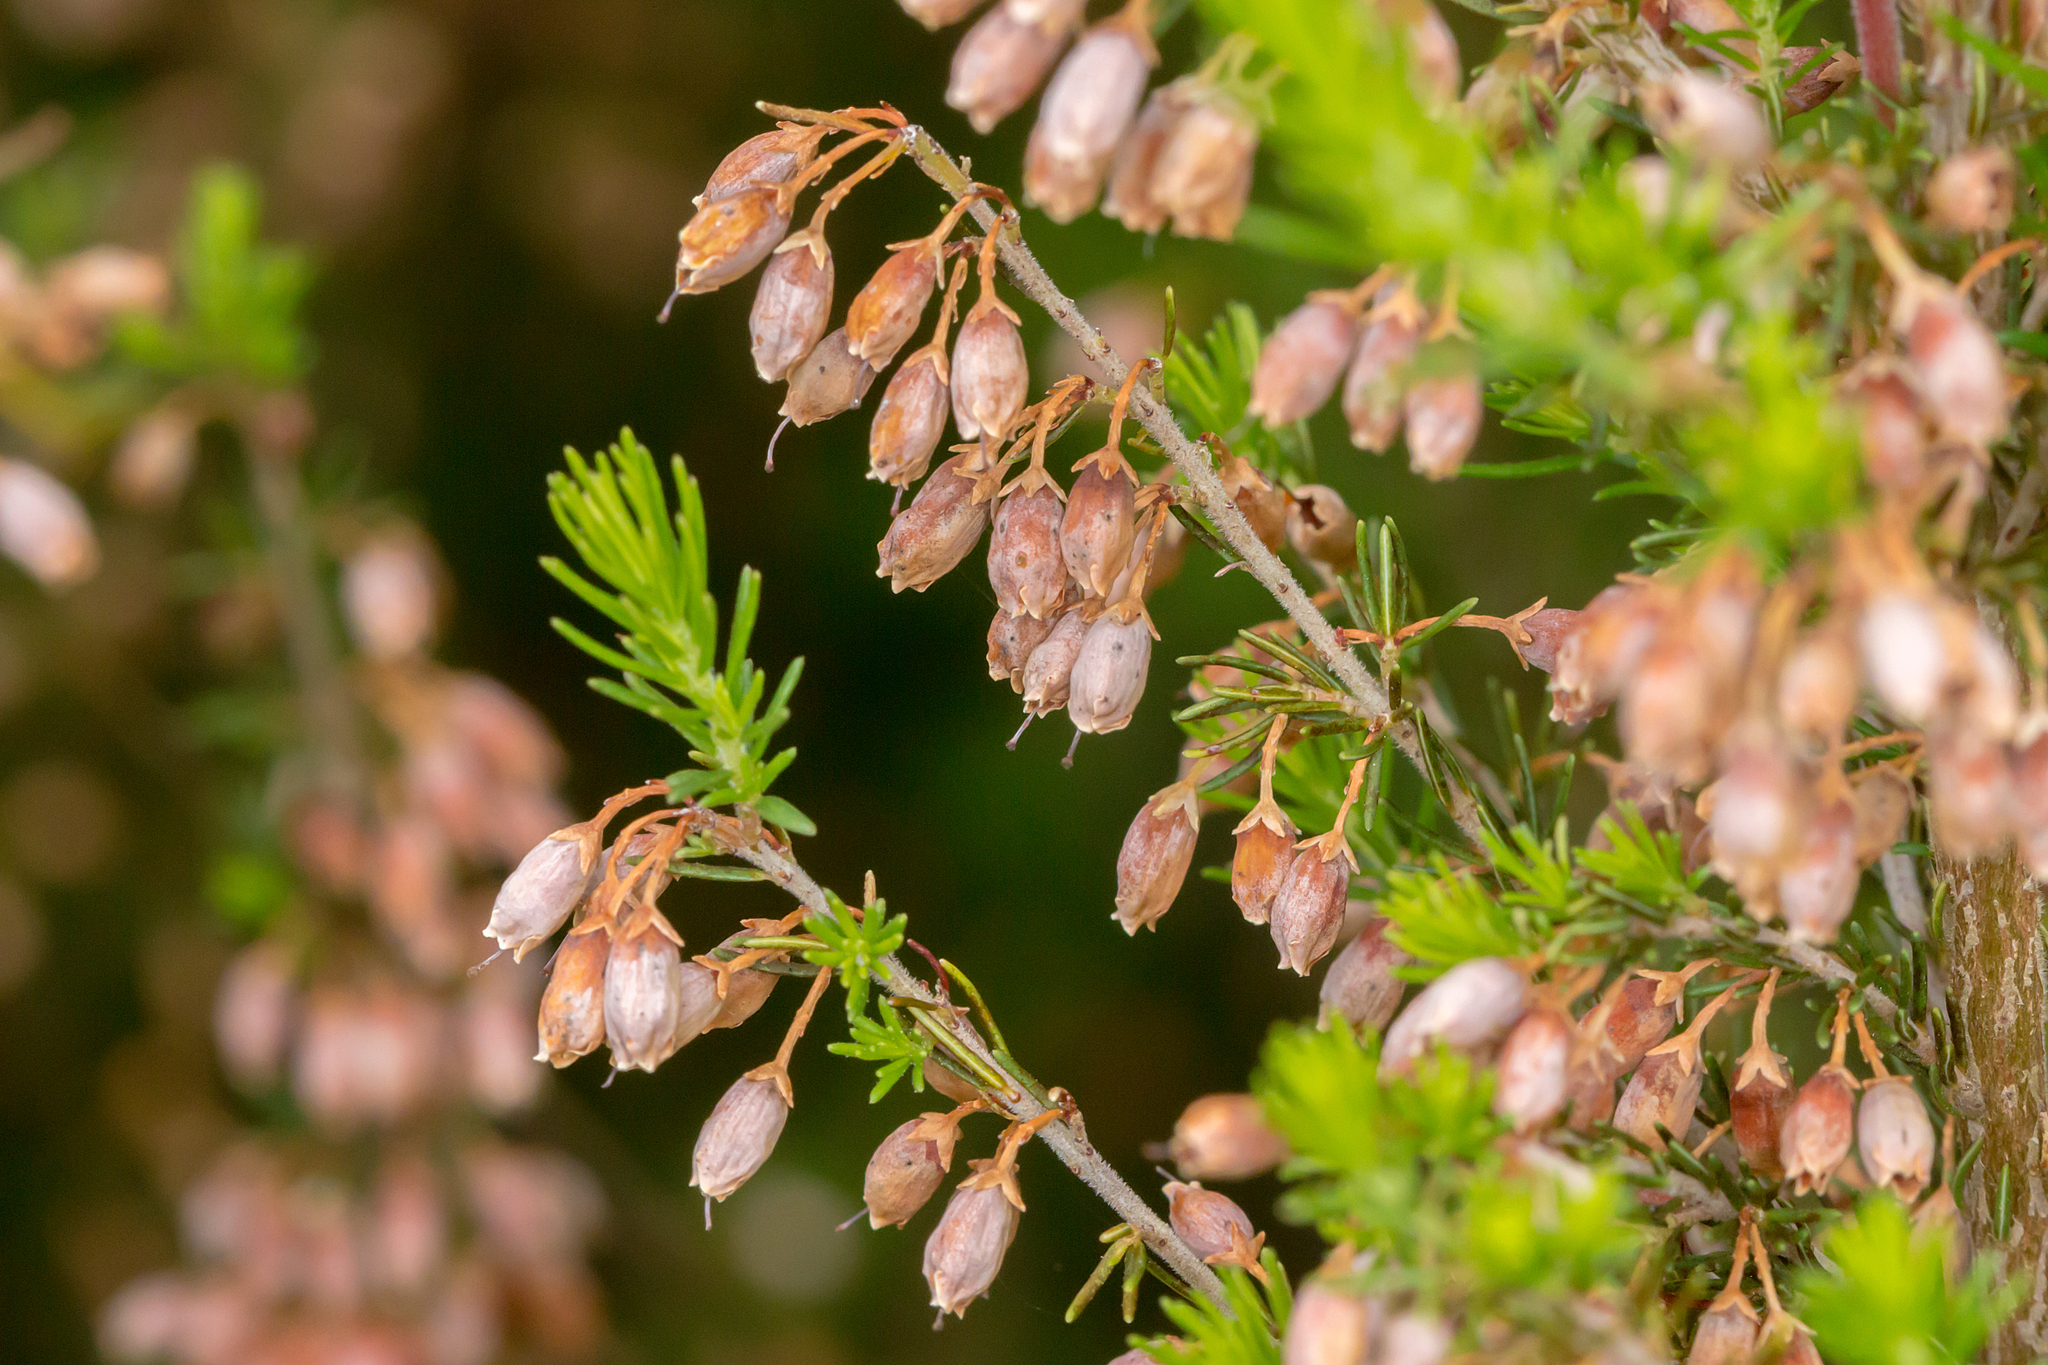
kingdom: Plantae
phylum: Tracheophyta
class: Magnoliopsida
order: Ericales
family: Ericaceae
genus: Erica
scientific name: Erica lusitanica
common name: Spanish heath
